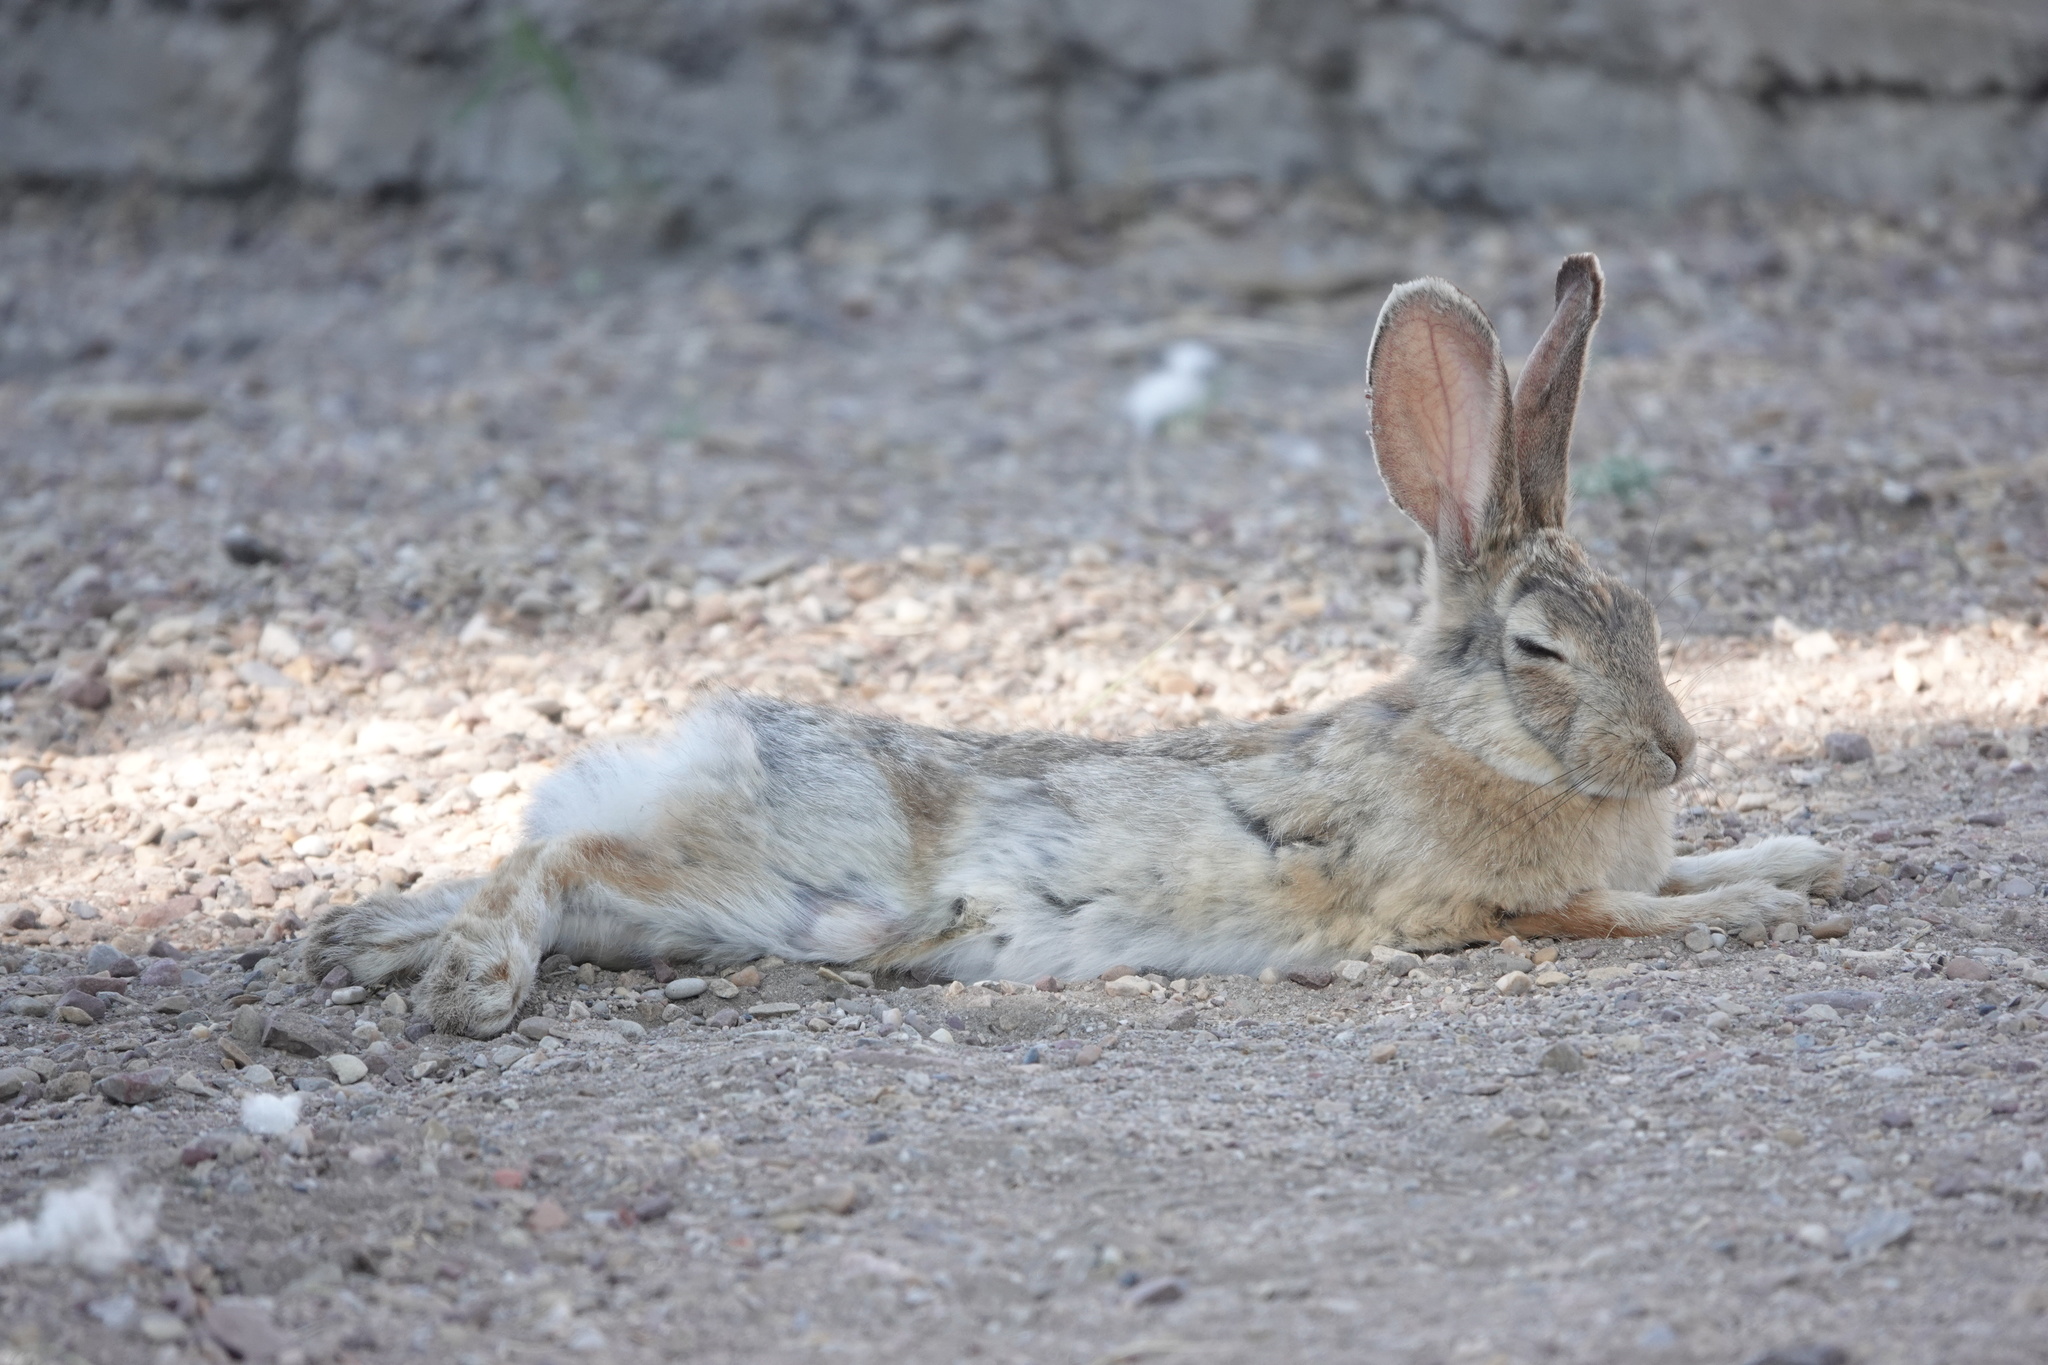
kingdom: Animalia
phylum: Chordata
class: Mammalia
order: Lagomorpha
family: Leporidae
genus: Sylvilagus
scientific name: Sylvilagus audubonii
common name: Desert cottontail
